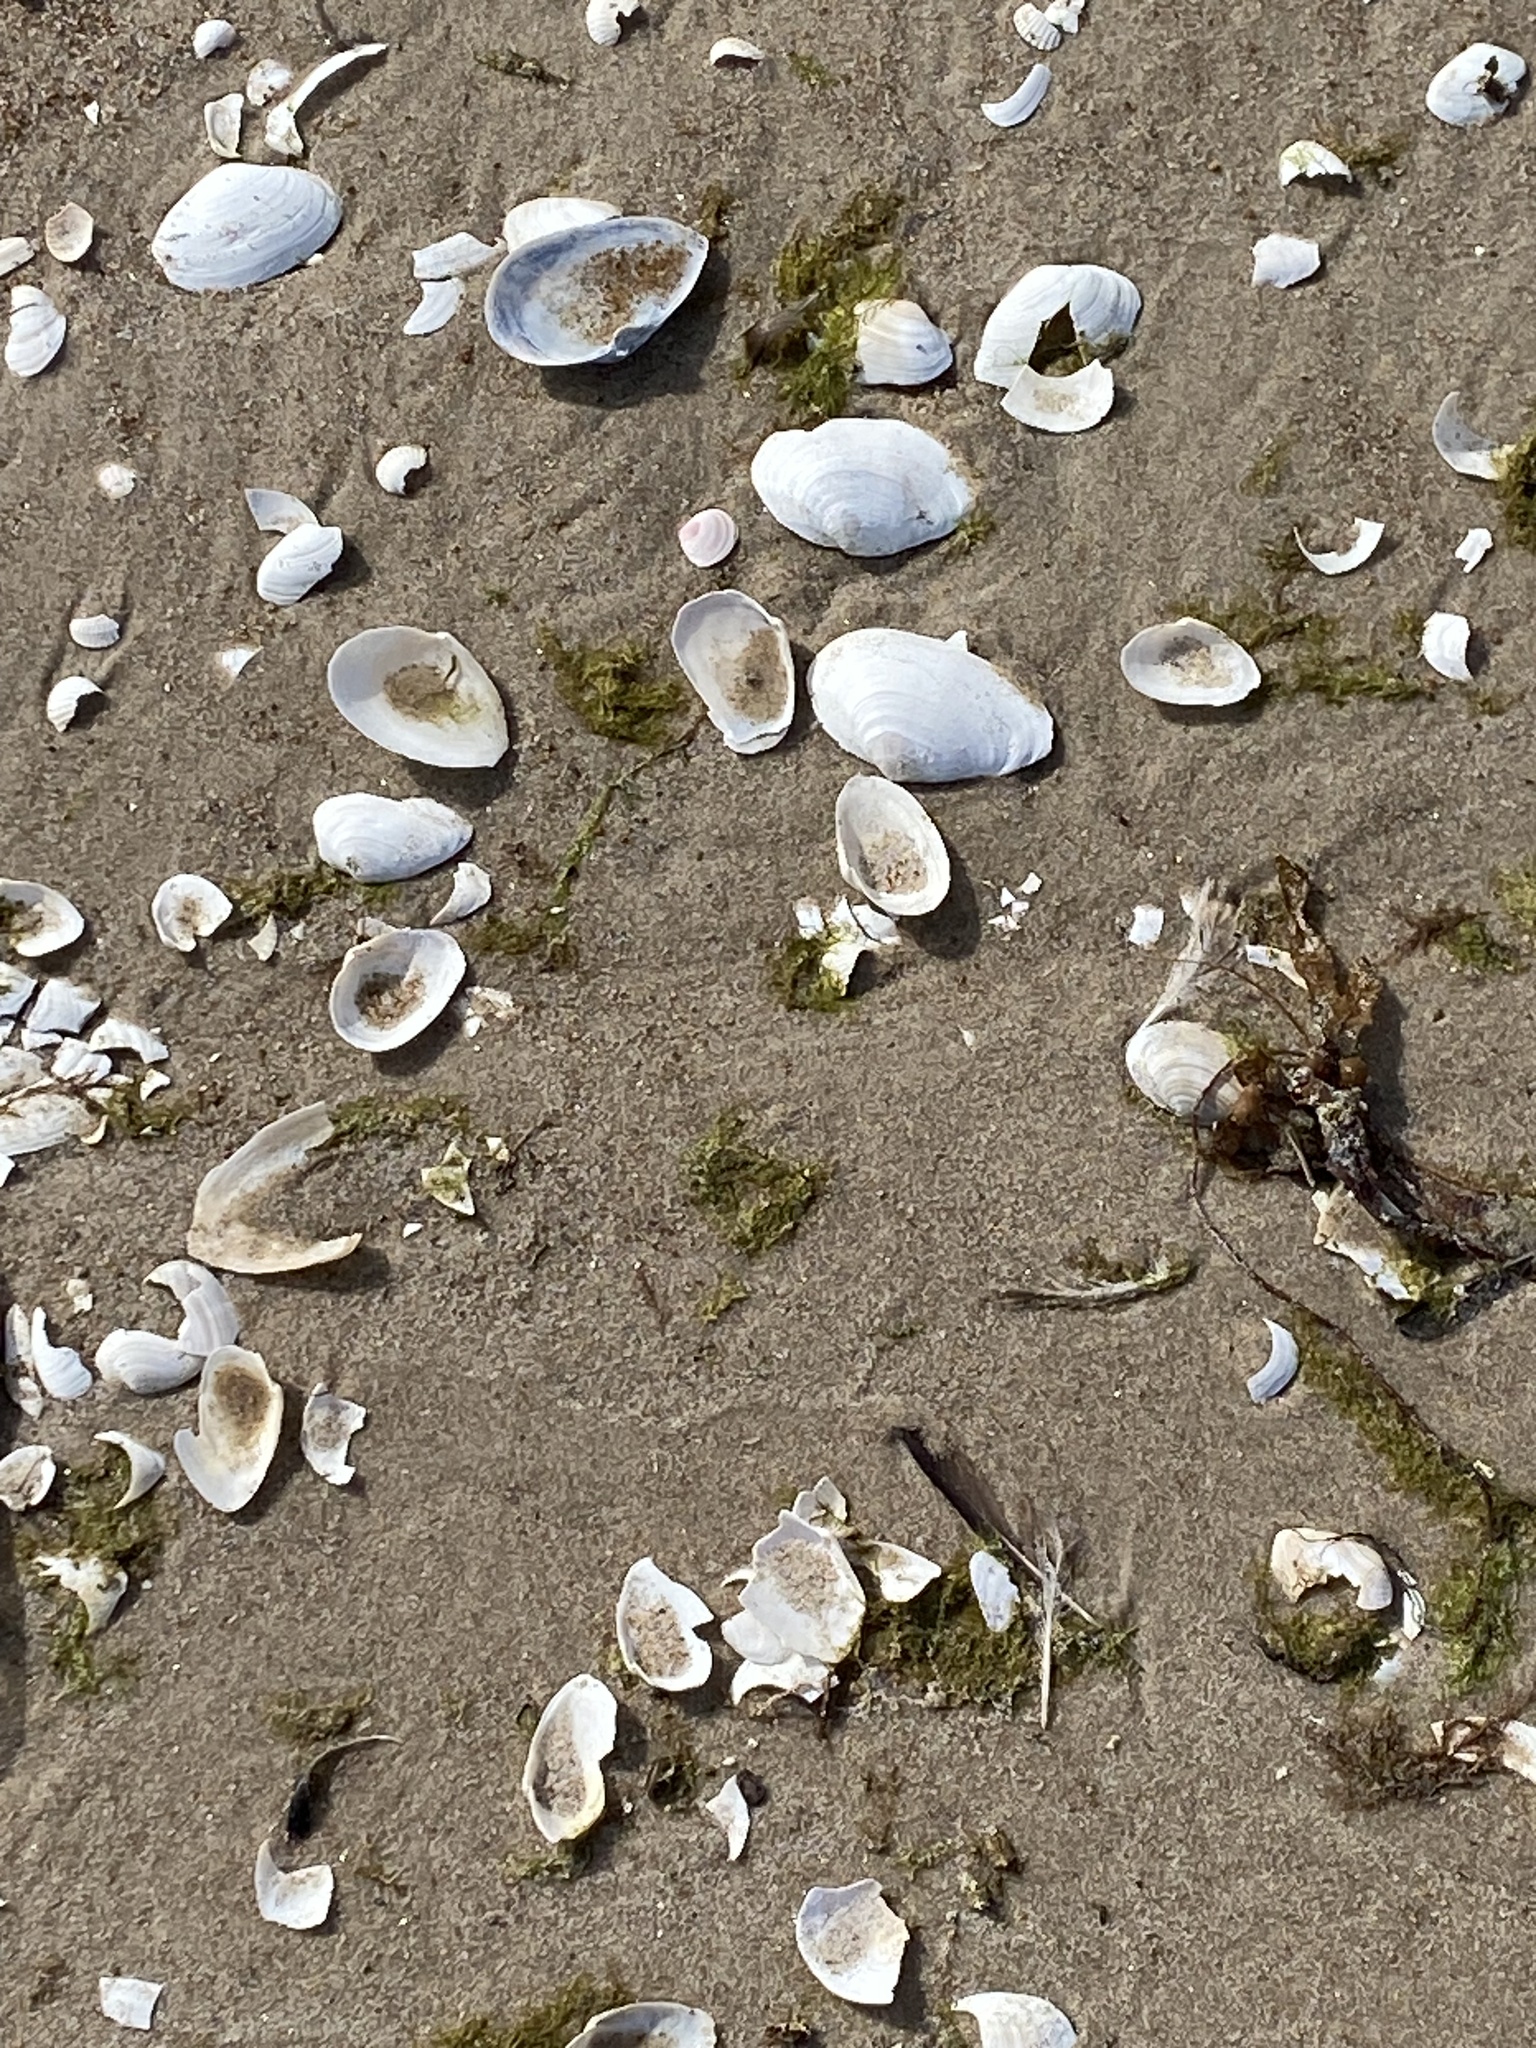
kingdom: Animalia
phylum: Mollusca
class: Bivalvia
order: Myida
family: Myidae
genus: Mya
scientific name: Mya arenaria
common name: Soft-shelled clam
